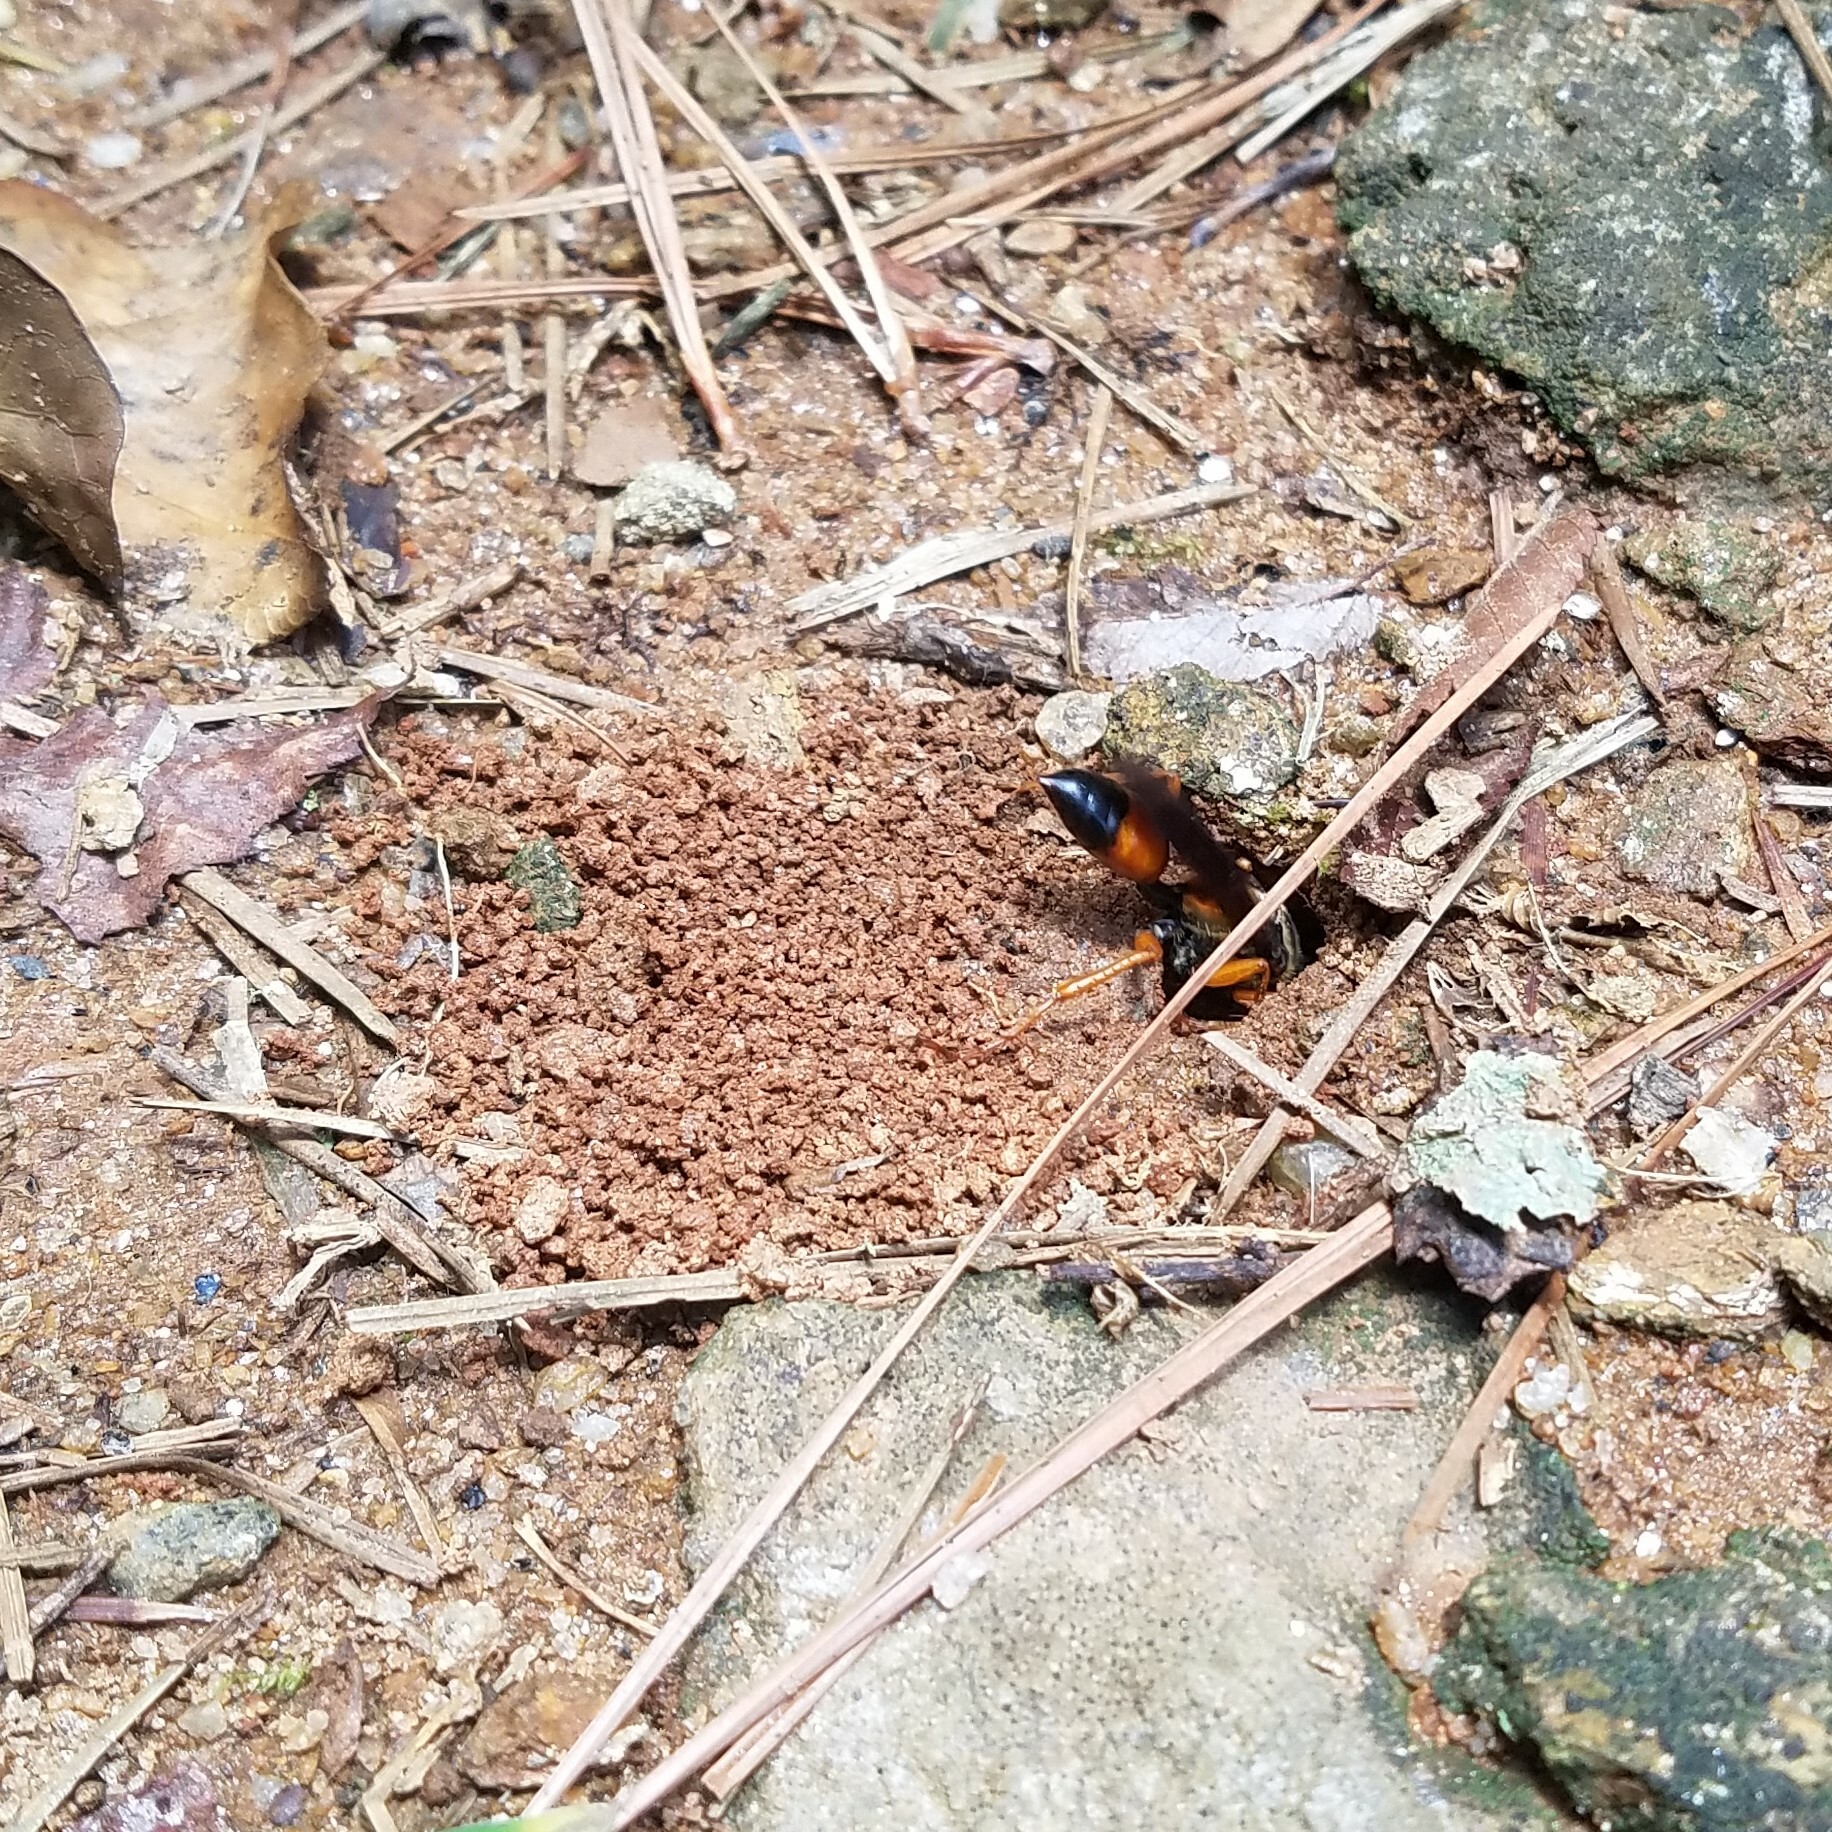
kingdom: Animalia
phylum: Arthropoda
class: Insecta
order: Hymenoptera
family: Sphecidae
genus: Sphex
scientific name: Sphex ichneumoneus
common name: Great golden digger wasp
